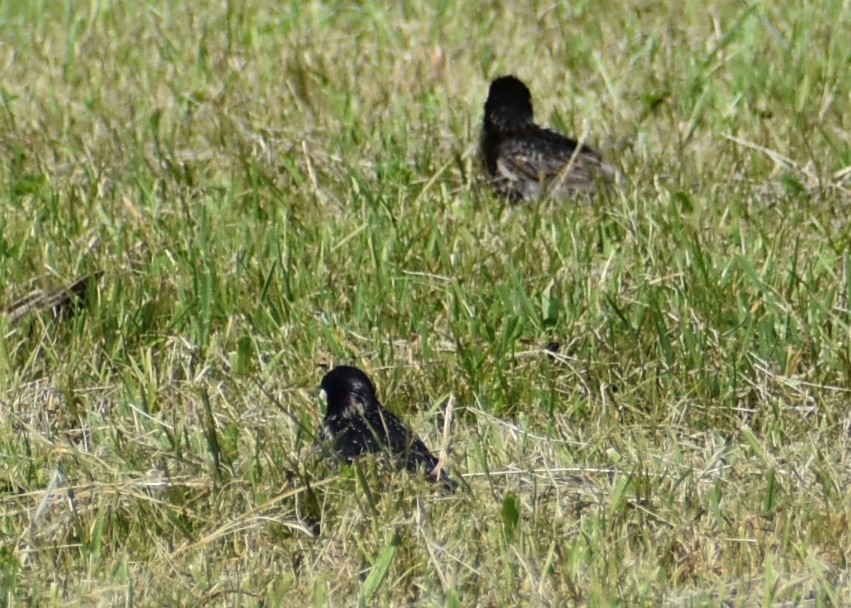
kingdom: Animalia
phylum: Chordata
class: Aves
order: Passeriformes
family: Sturnidae
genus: Sturnus
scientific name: Sturnus vulgaris
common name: Common starling
